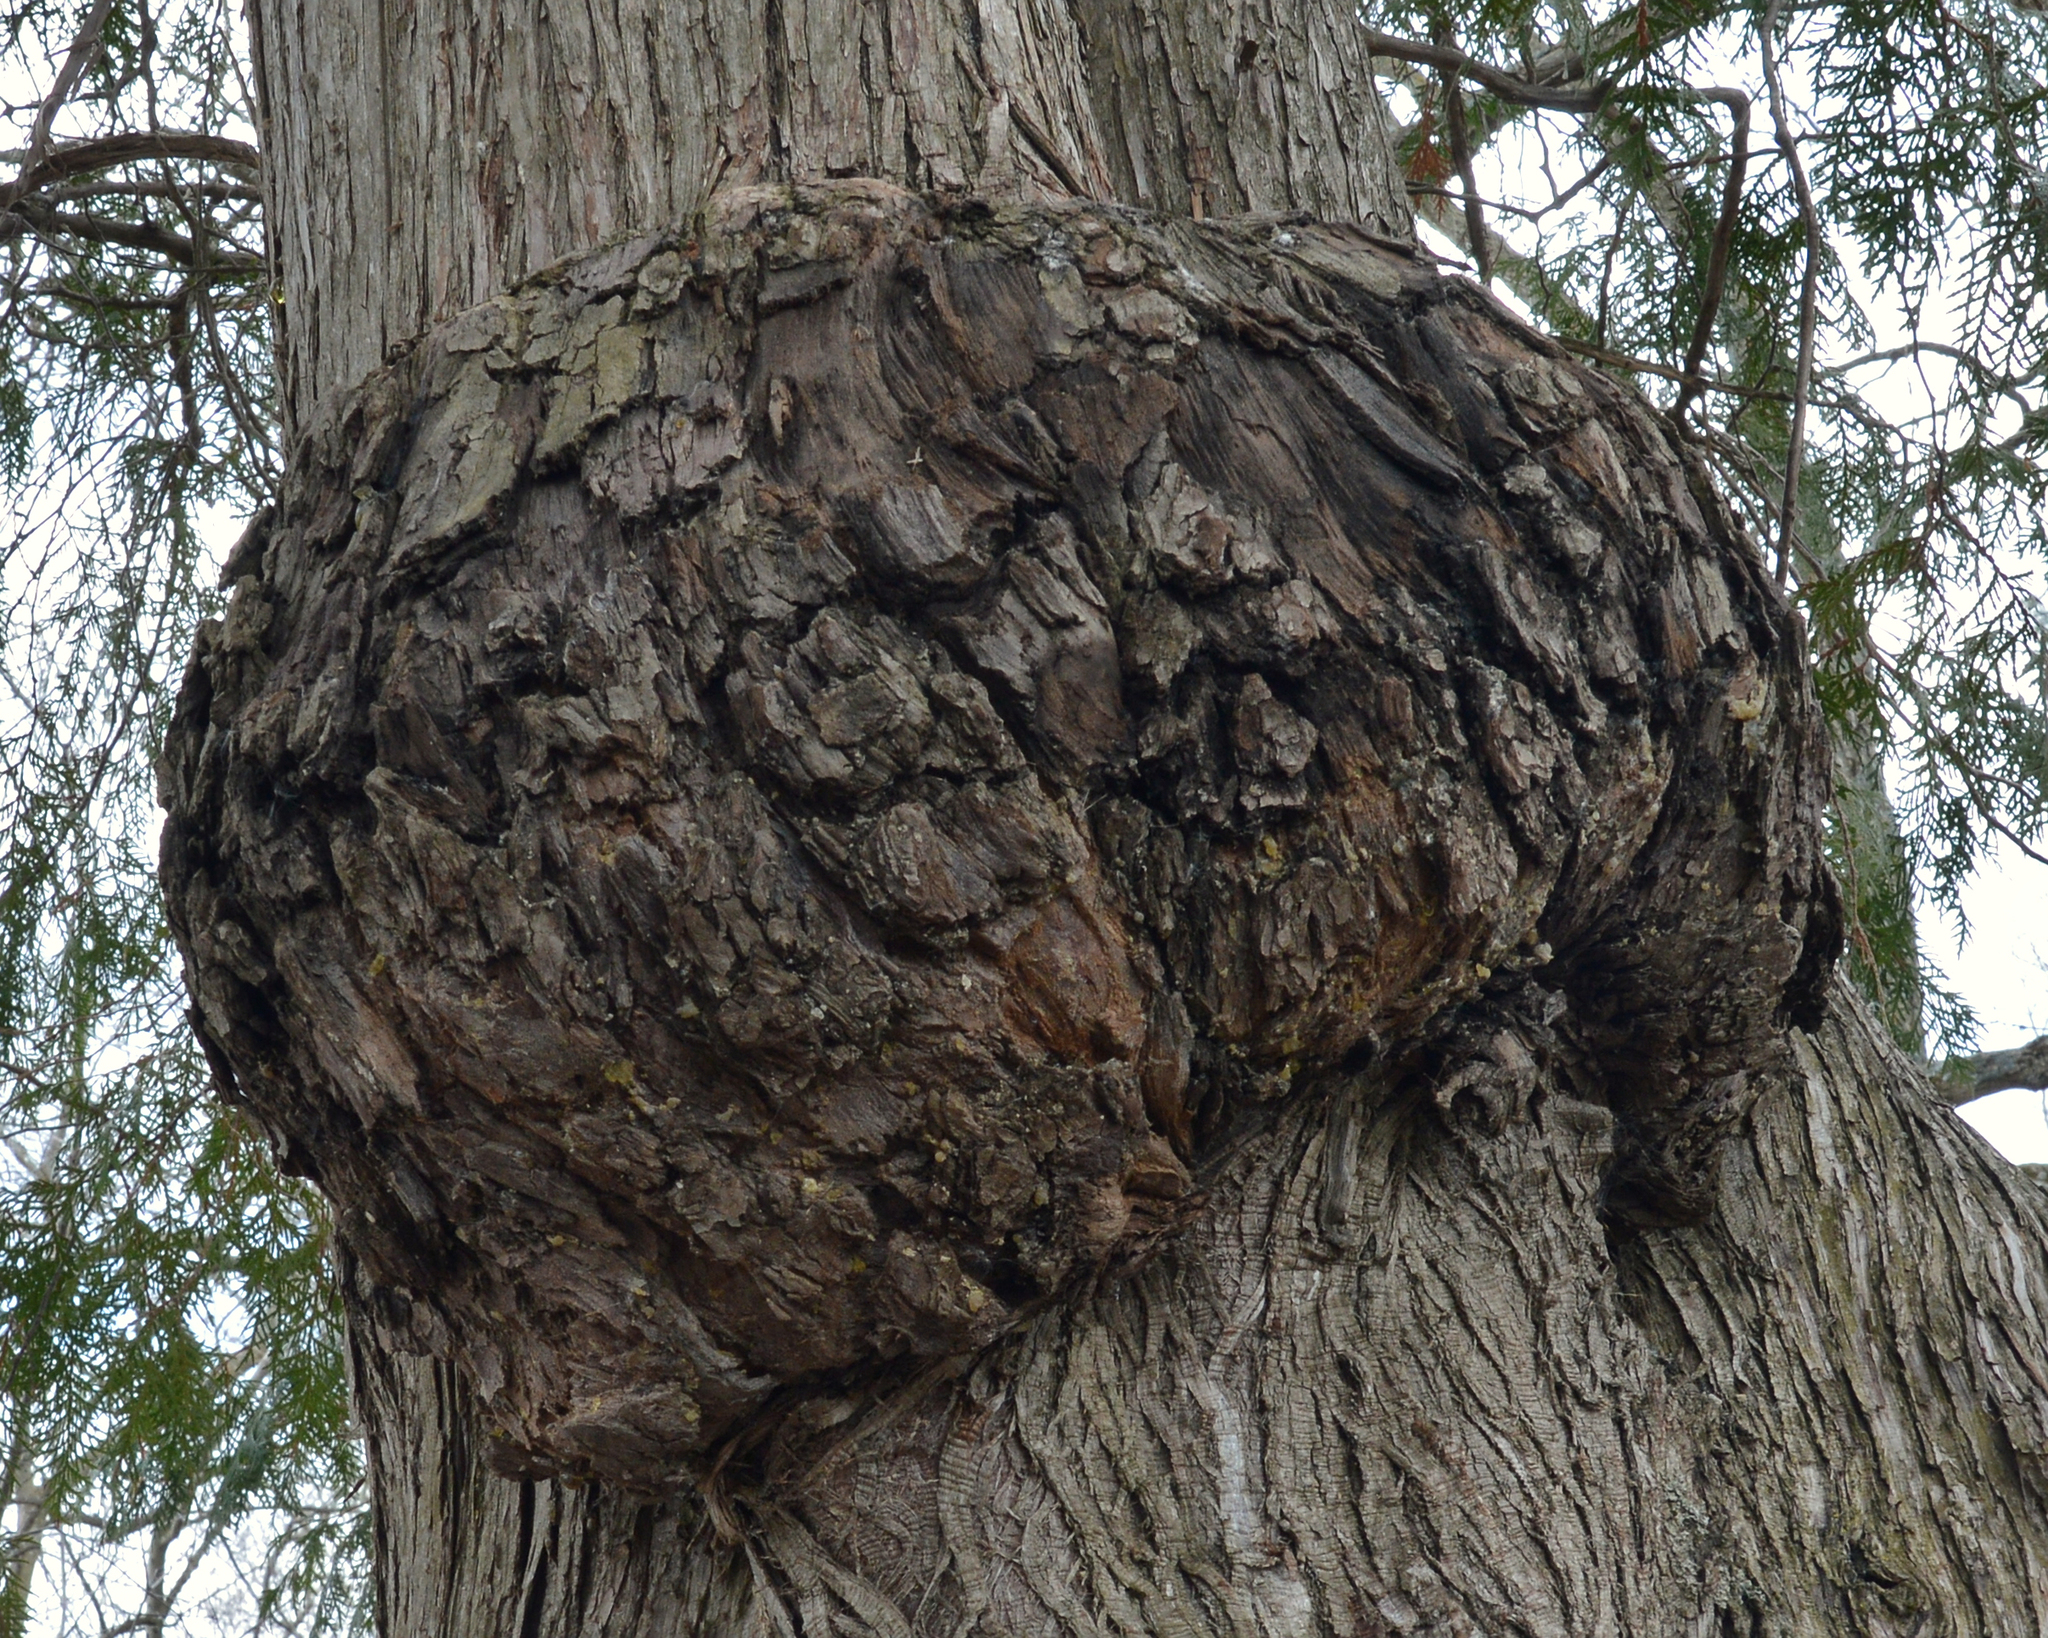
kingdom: Plantae
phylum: Tracheophyta
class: Pinopsida
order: Pinales
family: Cupressaceae
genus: Thuja
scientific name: Thuja occidentalis
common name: Northern white-cedar
